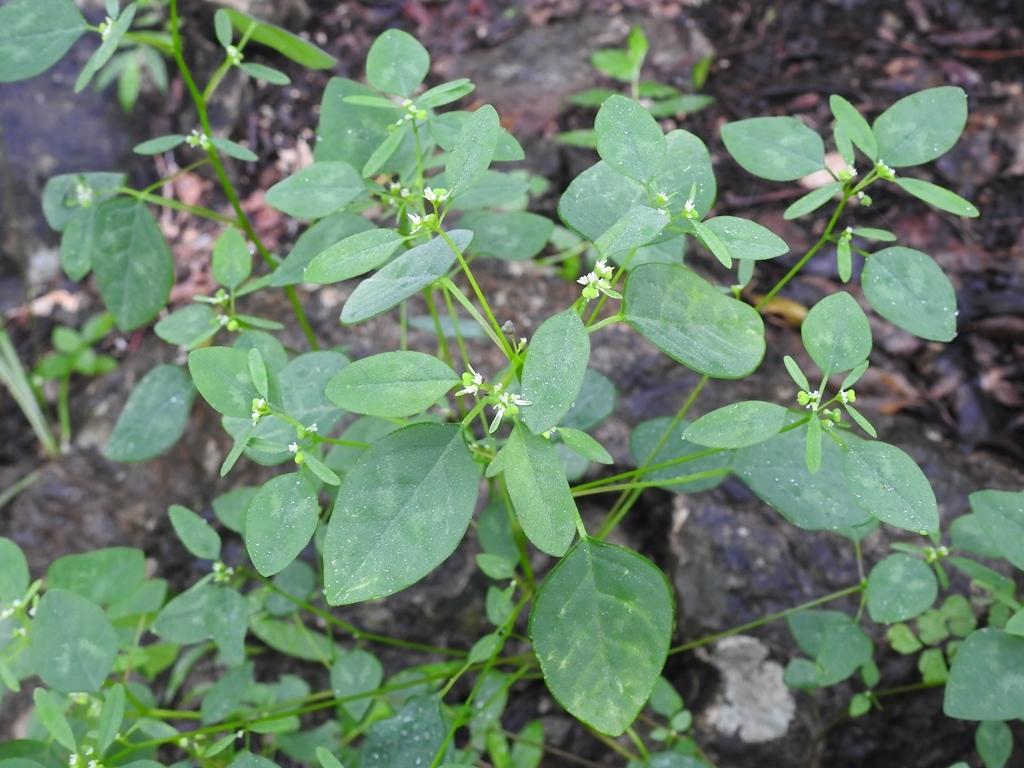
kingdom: Plantae
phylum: Tracheophyta
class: Magnoliopsida
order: Malpighiales
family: Euphorbiaceae
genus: Euphorbia
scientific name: Euphorbia graminea
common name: Grassleaf spurge
